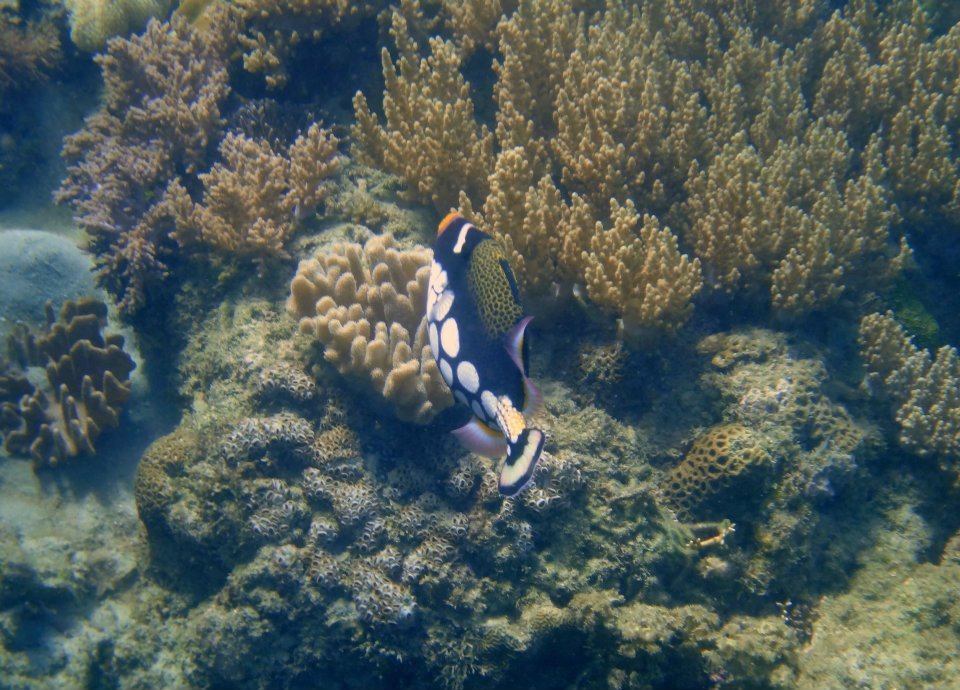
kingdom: Animalia
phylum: Chordata
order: Tetraodontiformes
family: Balistidae
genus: Balistoides
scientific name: Balistoides conspicillum
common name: Clown triggerfish
